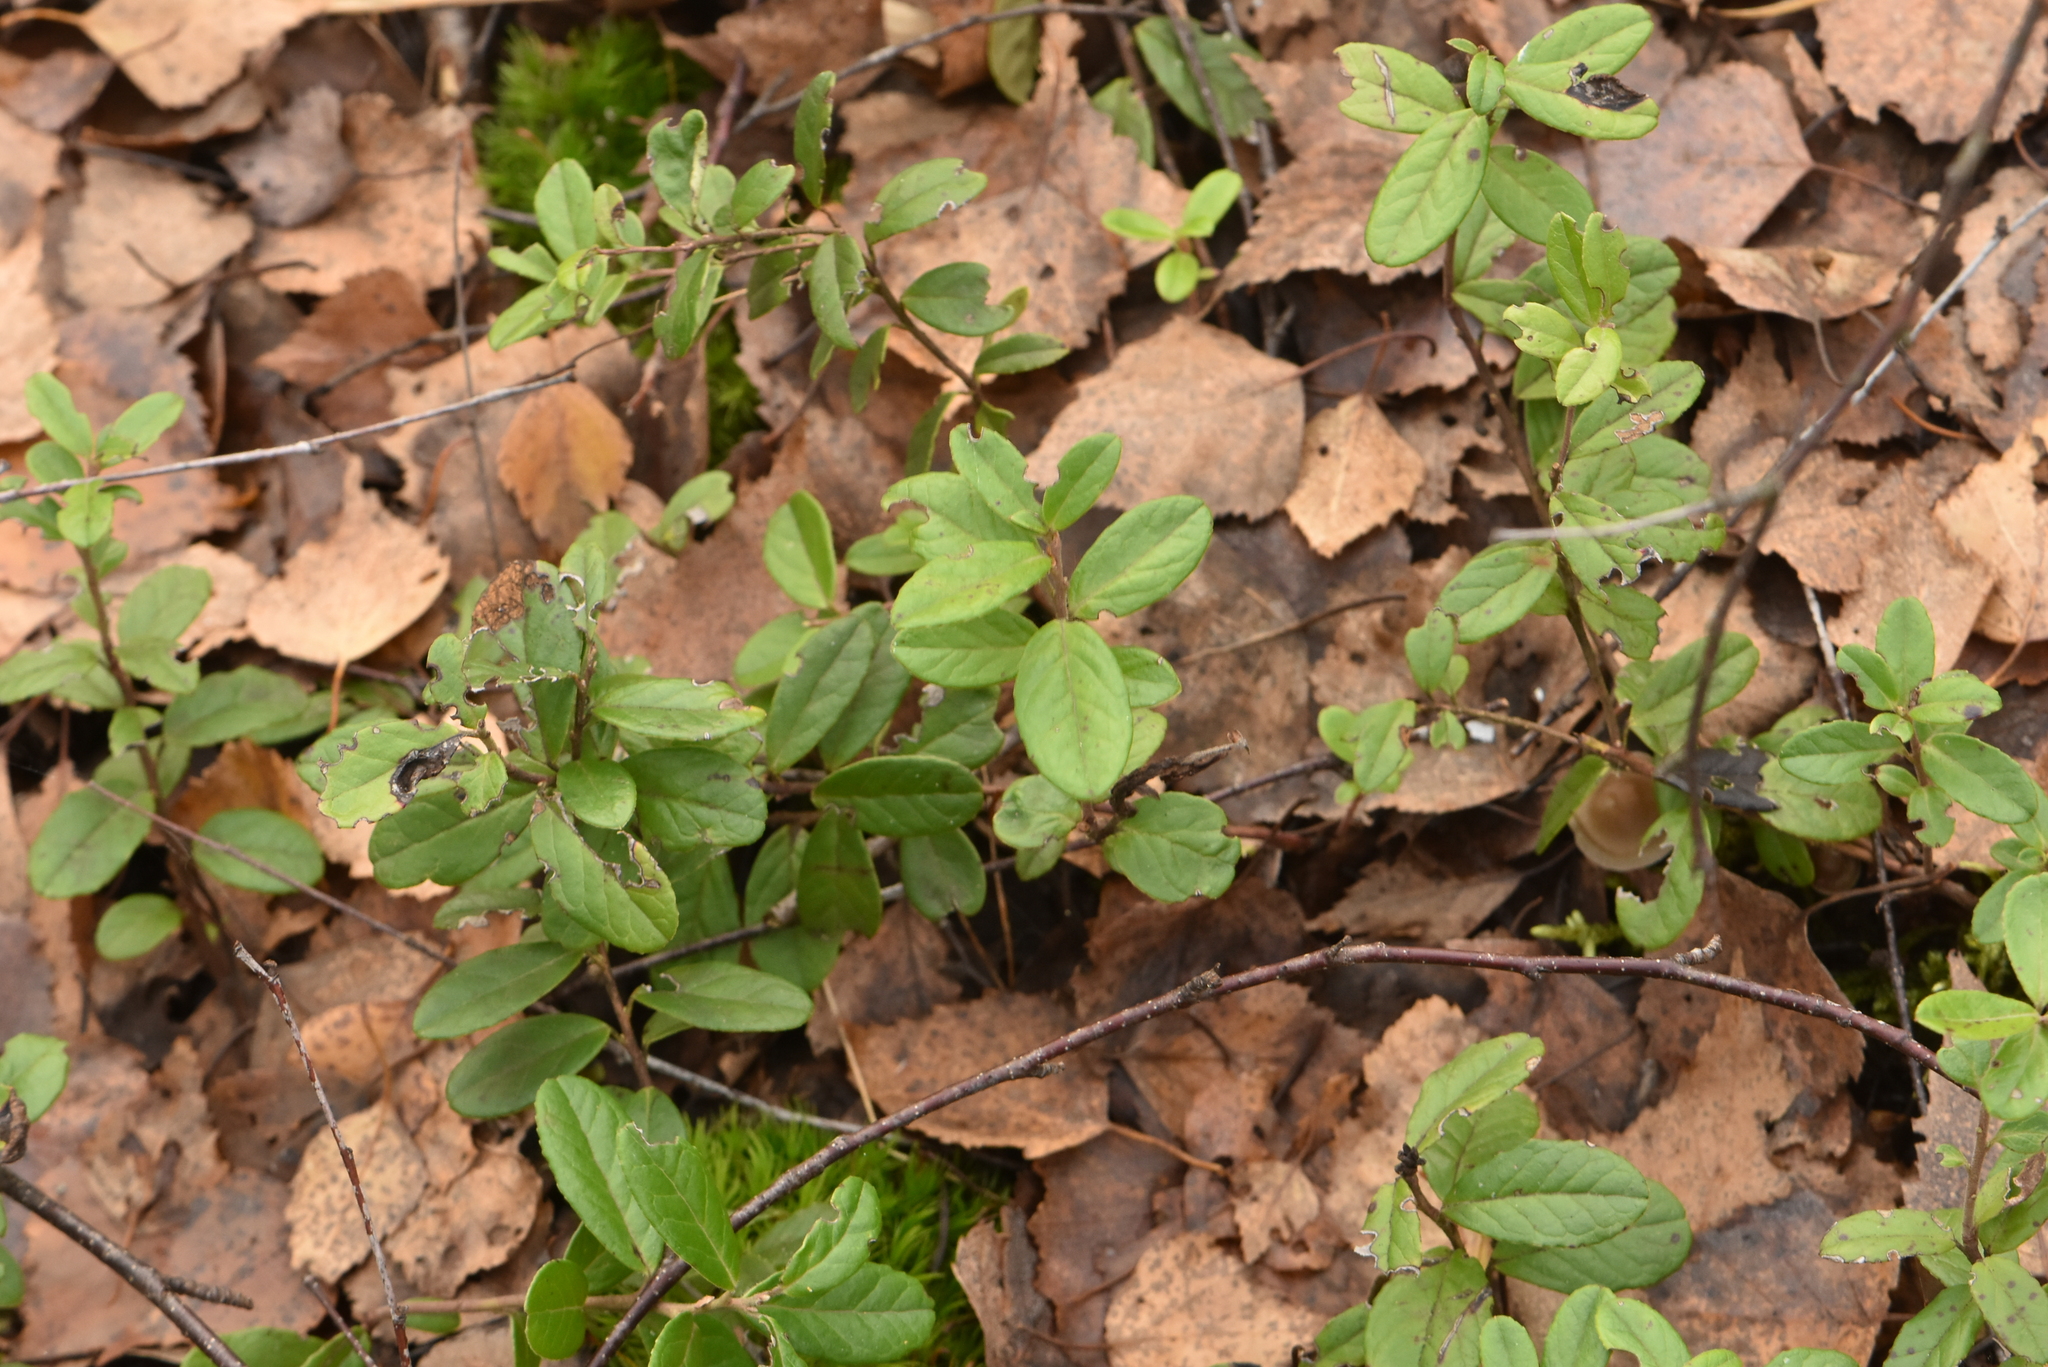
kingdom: Plantae
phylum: Tracheophyta
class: Magnoliopsida
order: Ericales
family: Ericaceae
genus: Vaccinium
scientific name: Vaccinium vitis-idaea
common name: Cowberry
